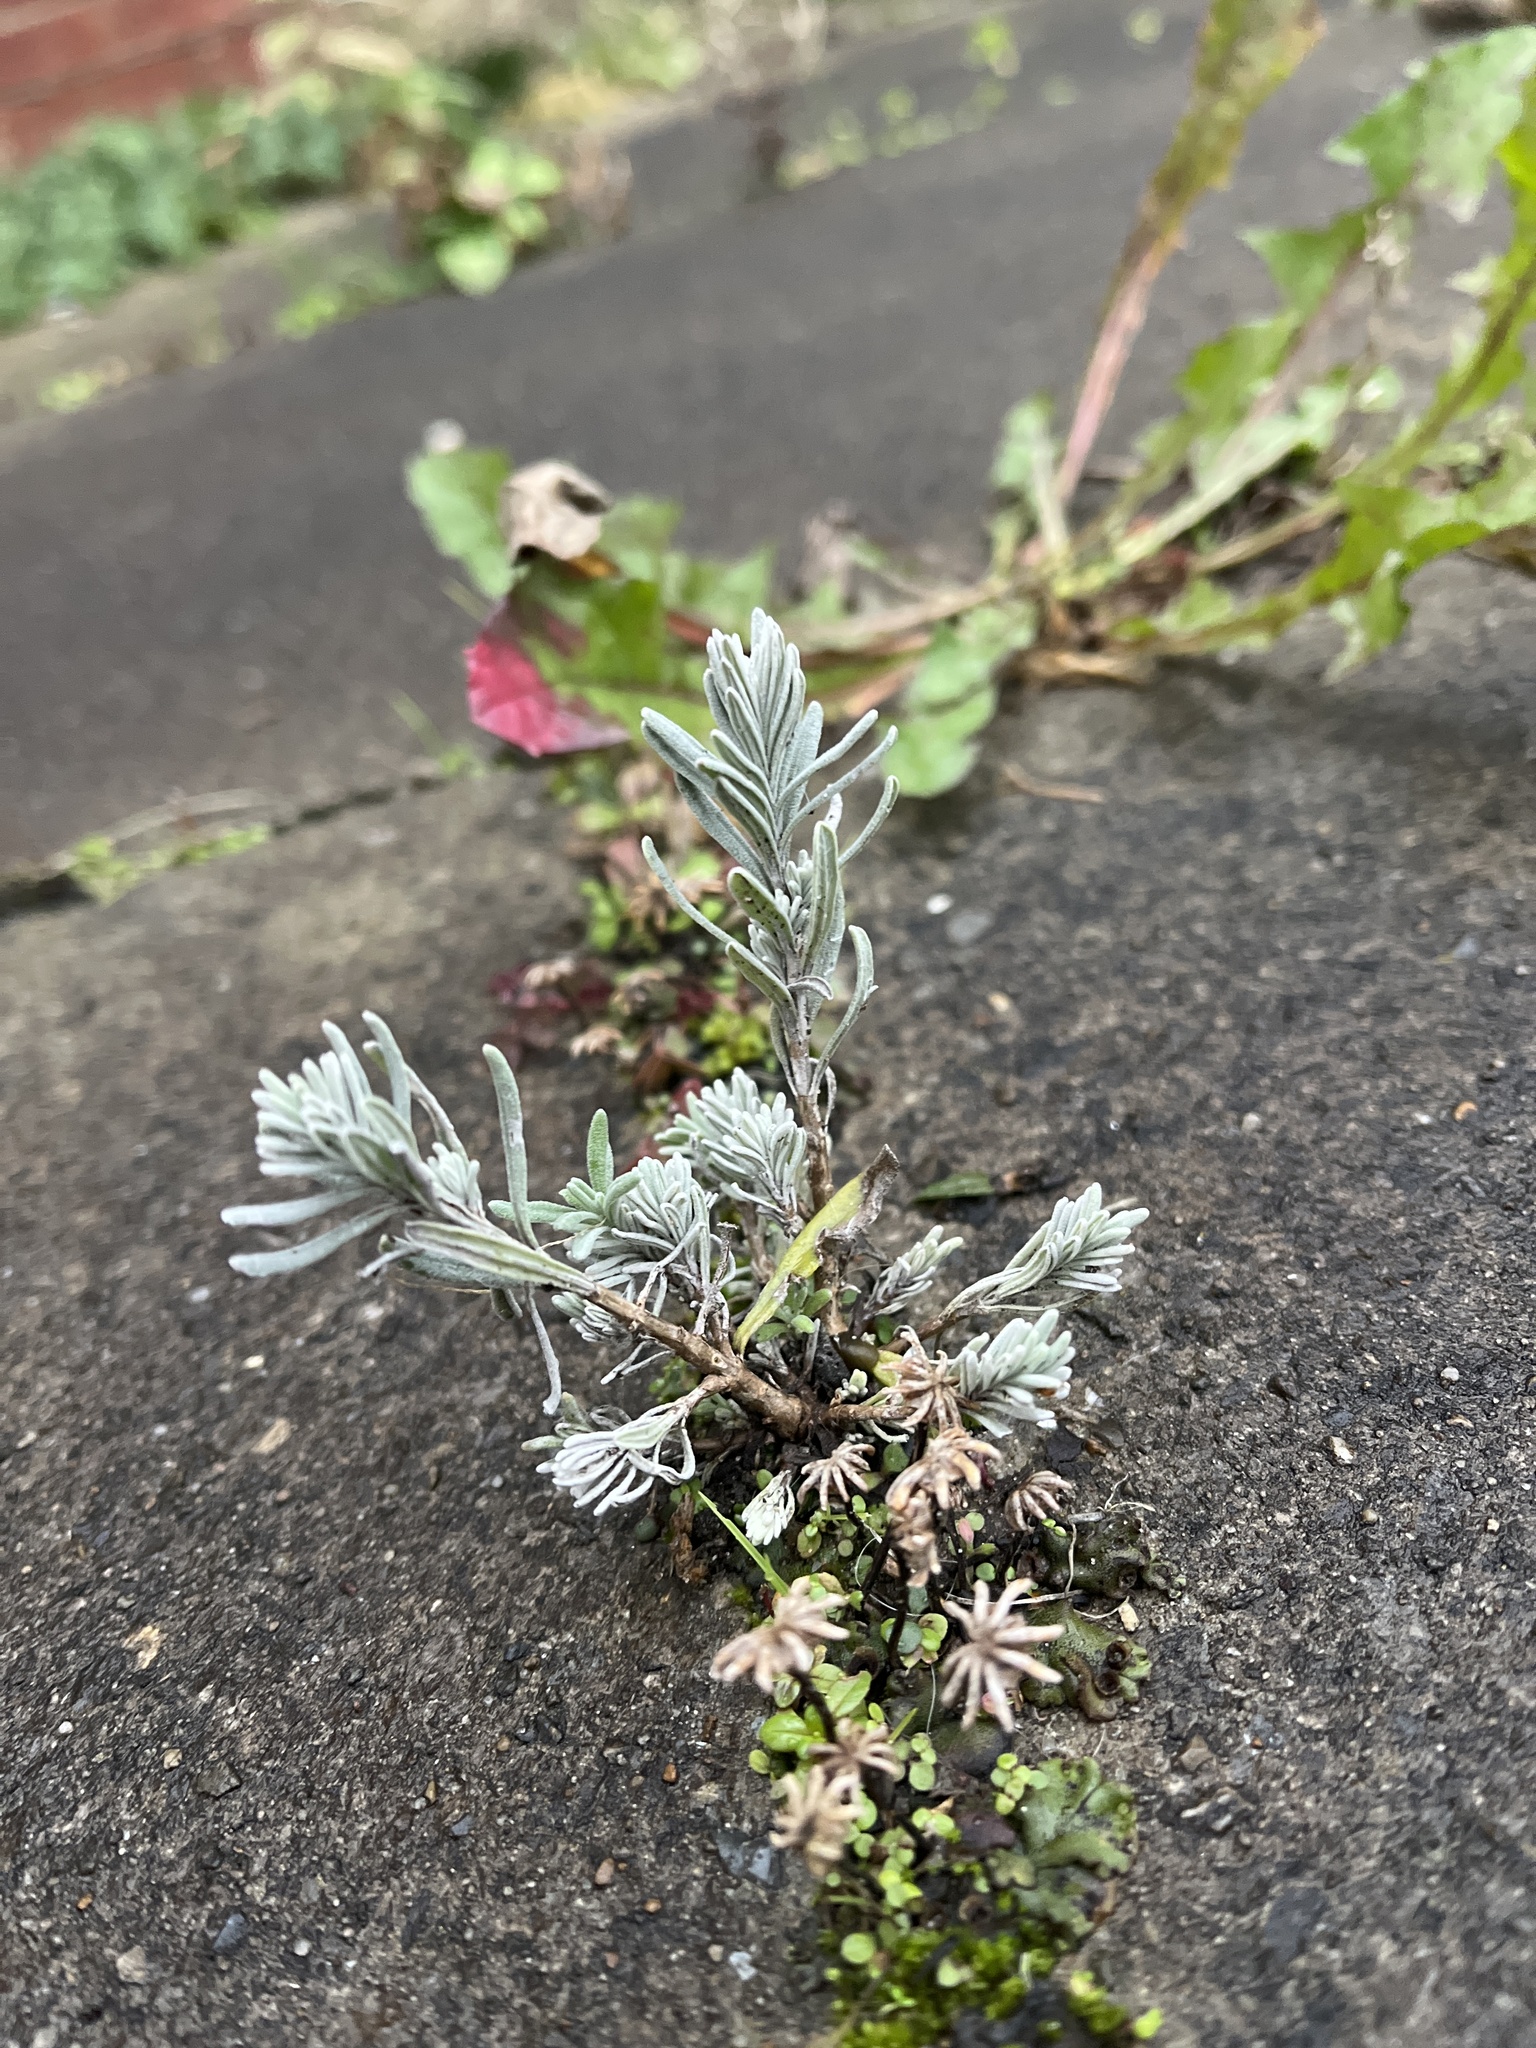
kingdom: Plantae
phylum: Tracheophyta
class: Magnoliopsida
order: Lamiales
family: Lamiaceae
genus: Lavandula
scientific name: Lavandula angustifolia
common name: Garden lavender
